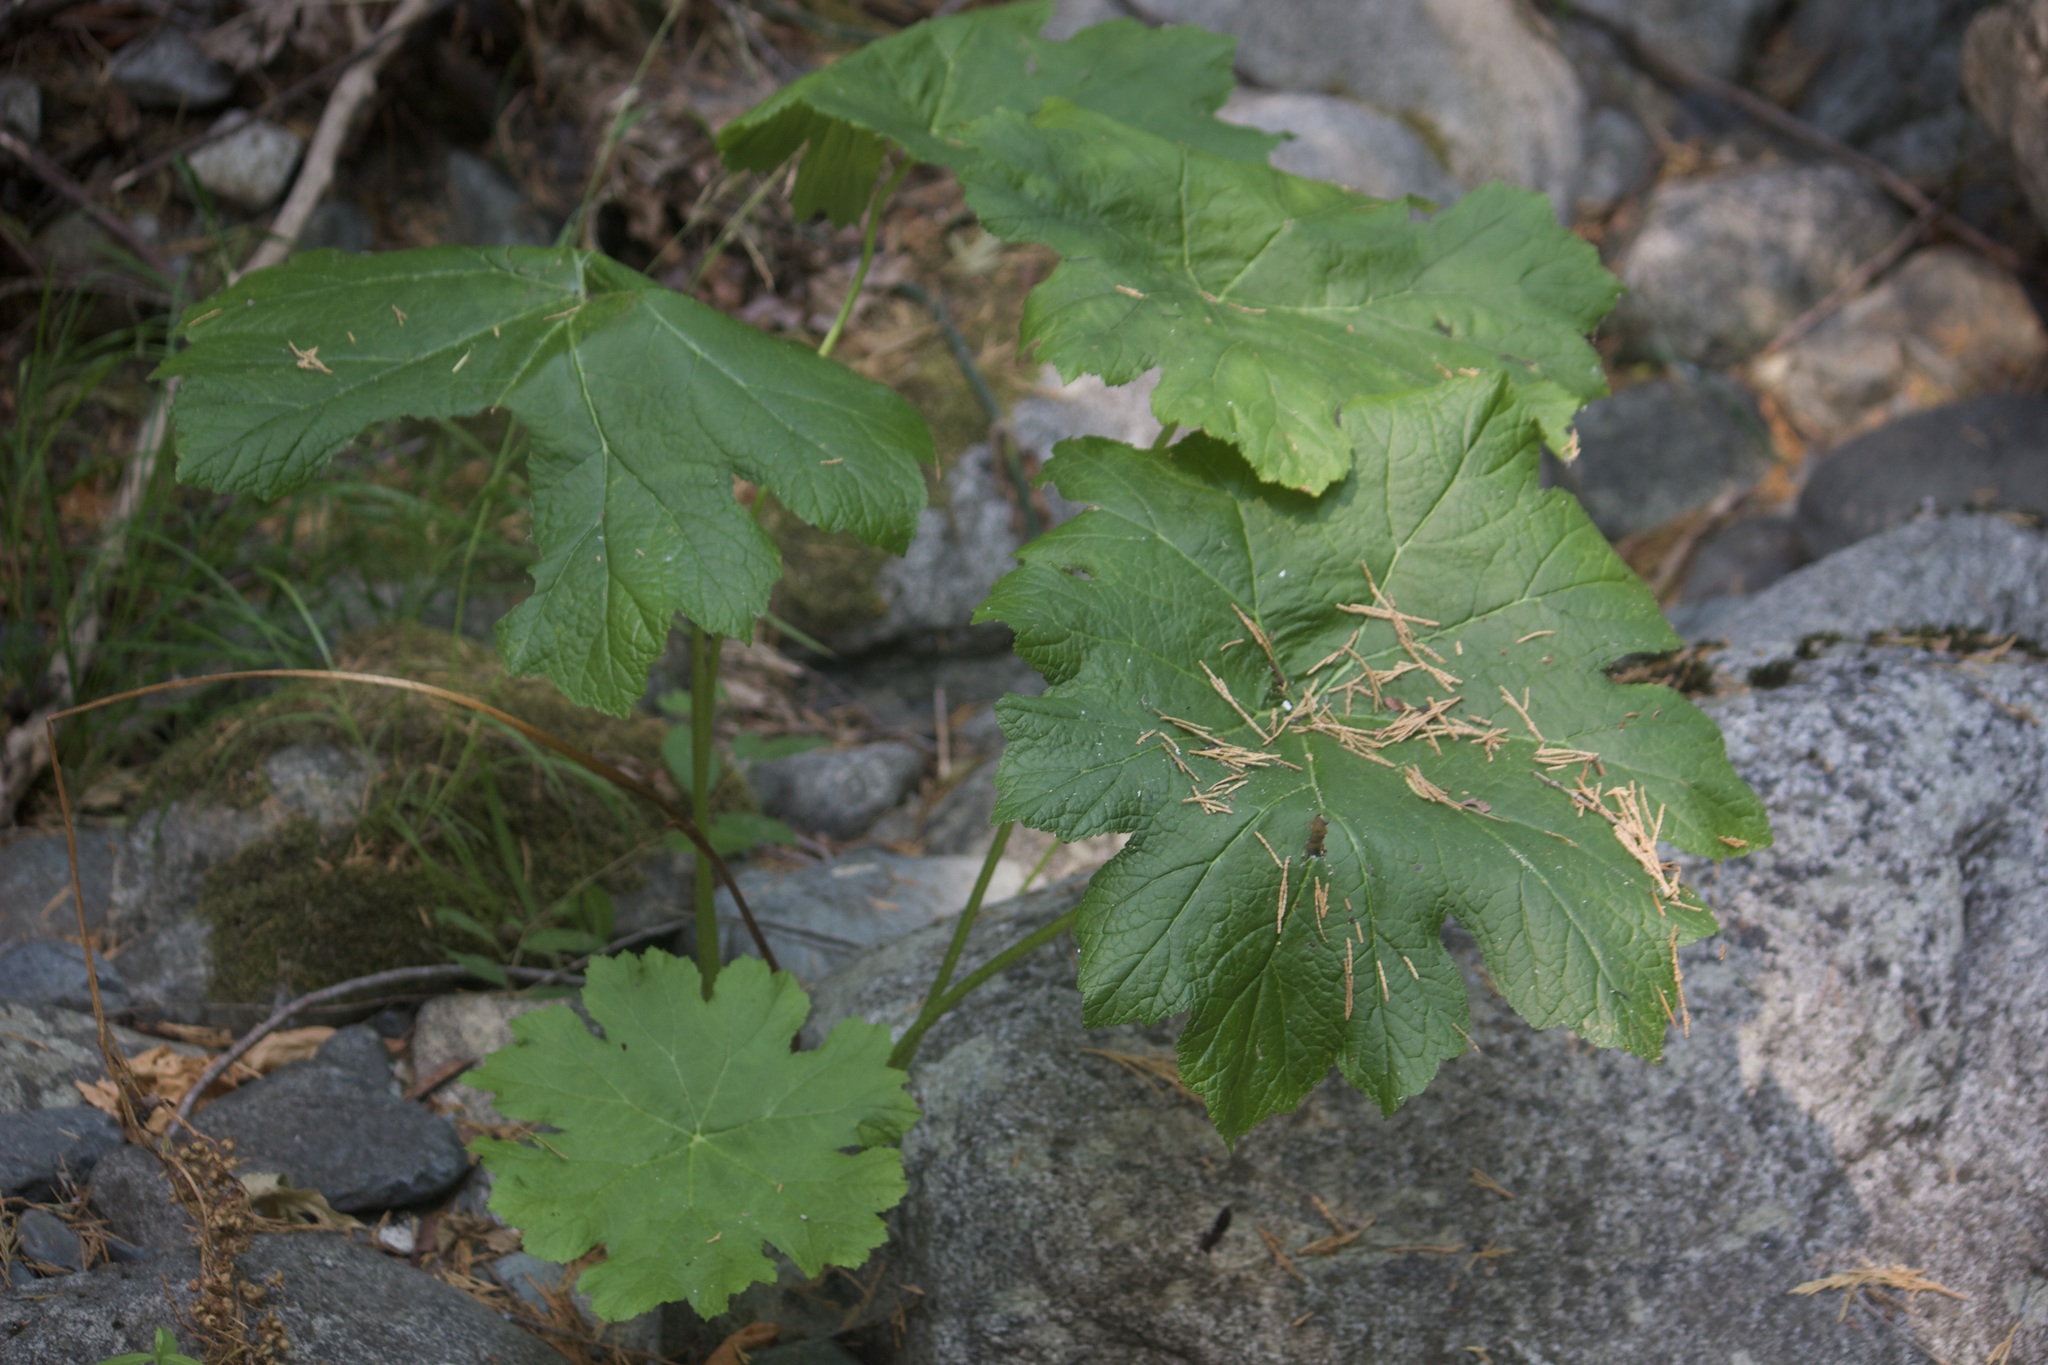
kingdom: Plantae
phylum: Tracheophyta
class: Magnoliopsida
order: Saxifragales
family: Saxifragaceae
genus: Darmera
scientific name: Darmera peltata
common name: Indian-rhubarb
